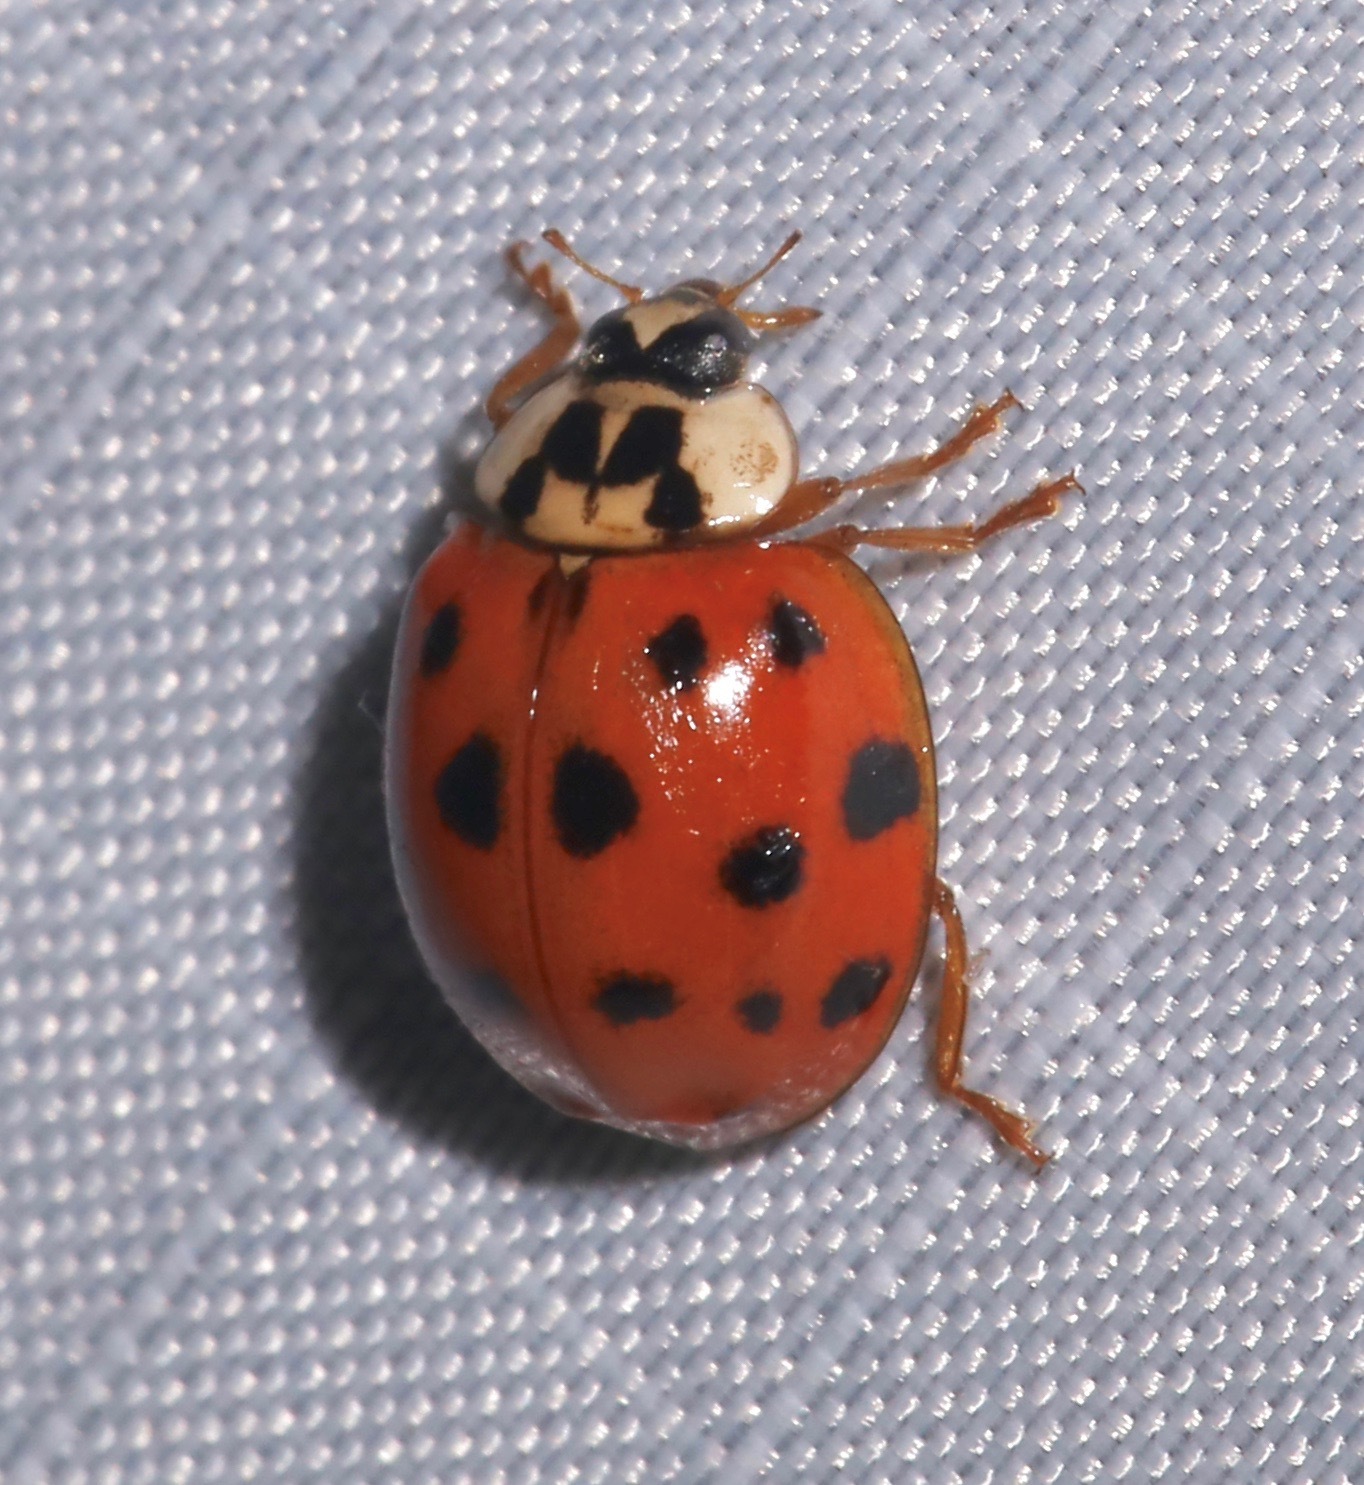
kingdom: Animalia
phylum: Arthropoda
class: Insecta
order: Coleoptera
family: Coccinellidae
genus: Harmonia
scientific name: Harmonia axyridis
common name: Harlequin ladybird
